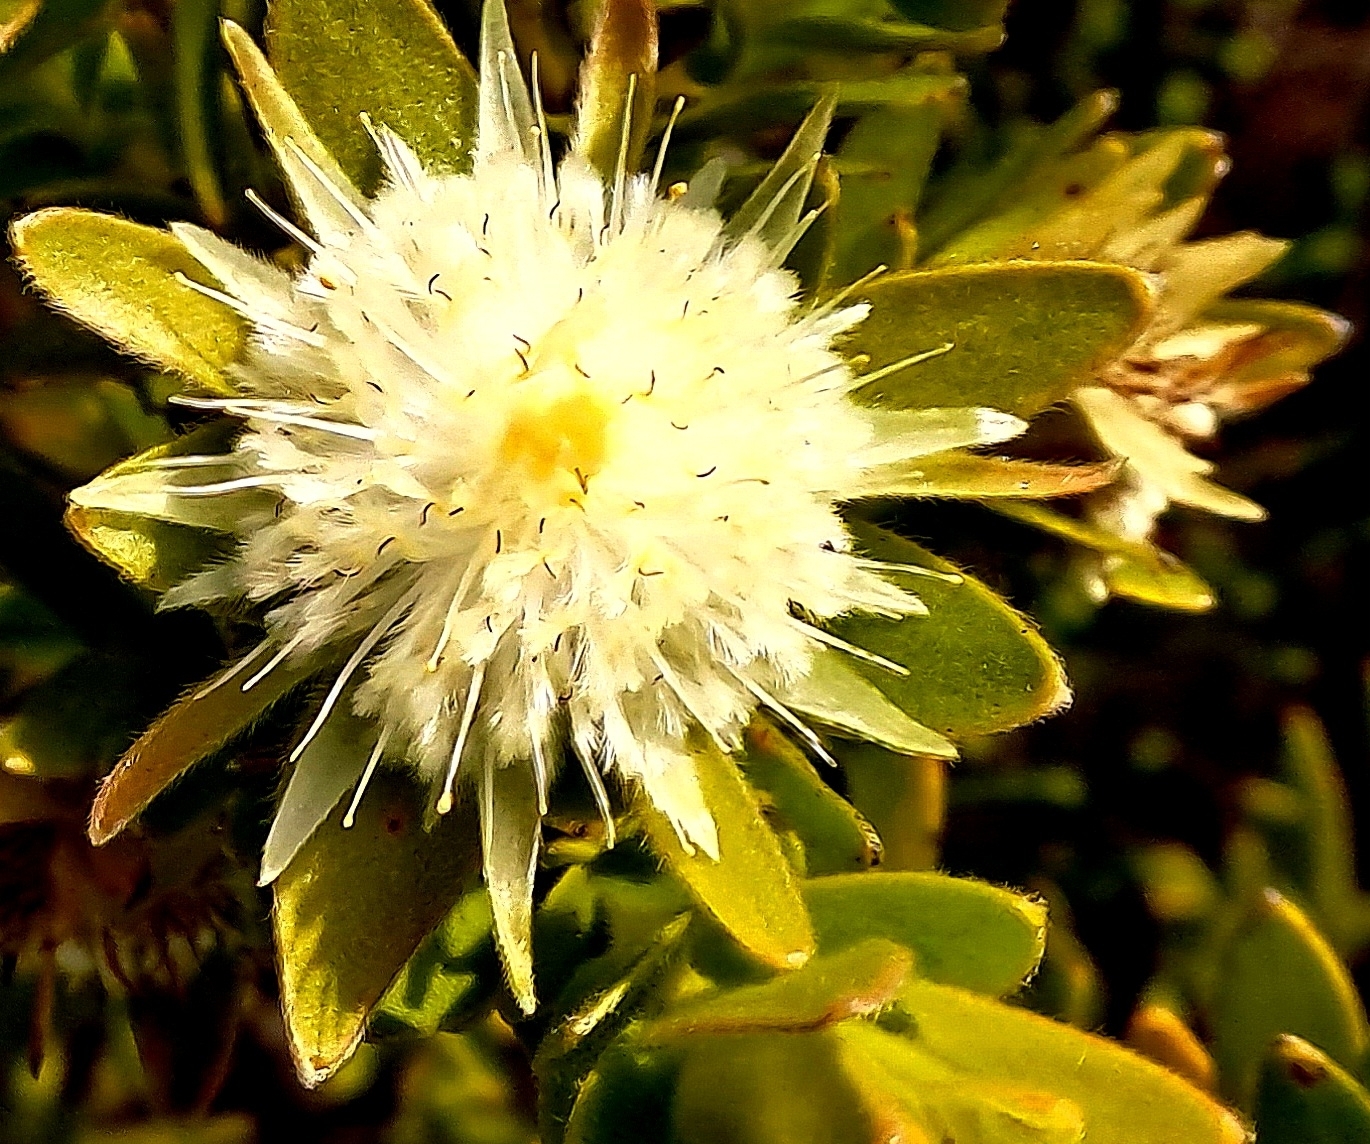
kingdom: Plantae
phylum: Tracheophyta
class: Magnoliopsida
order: Proteales
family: Proteaceae
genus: Diastella
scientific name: Diastella thymelaeoides
